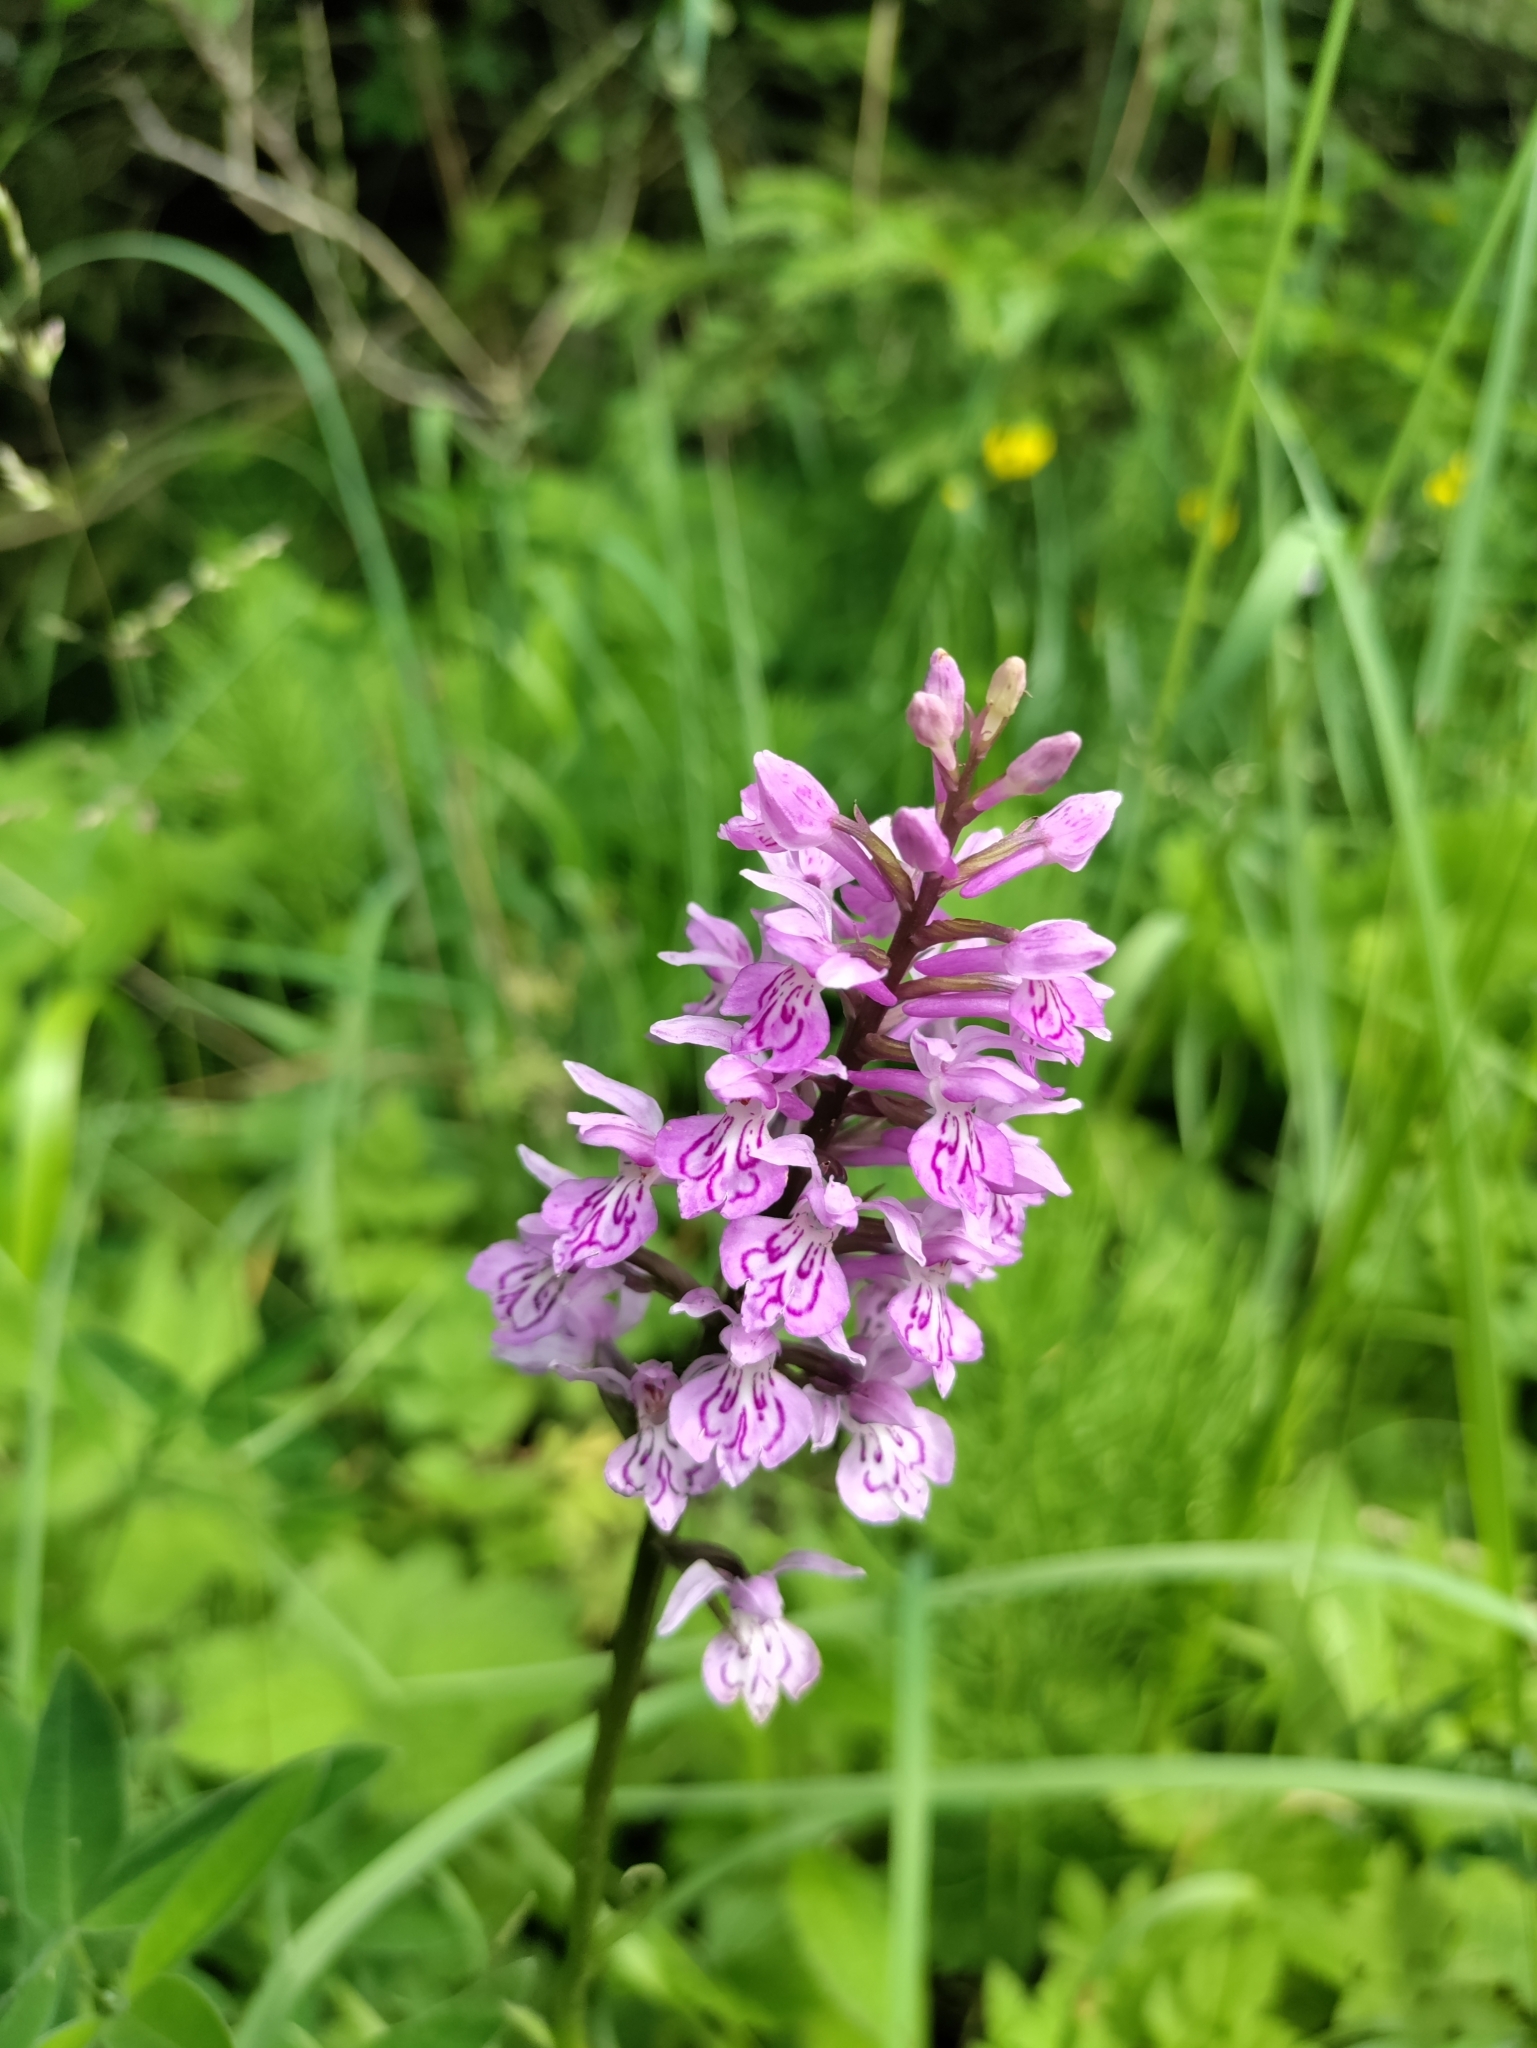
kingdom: Plantae
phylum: Tracheophyta
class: Liliopsida
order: Asparagales
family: Orchidaceae
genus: Dactylorhiza
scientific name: Dactylorhiza maculata
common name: Heath spotted-orchid
